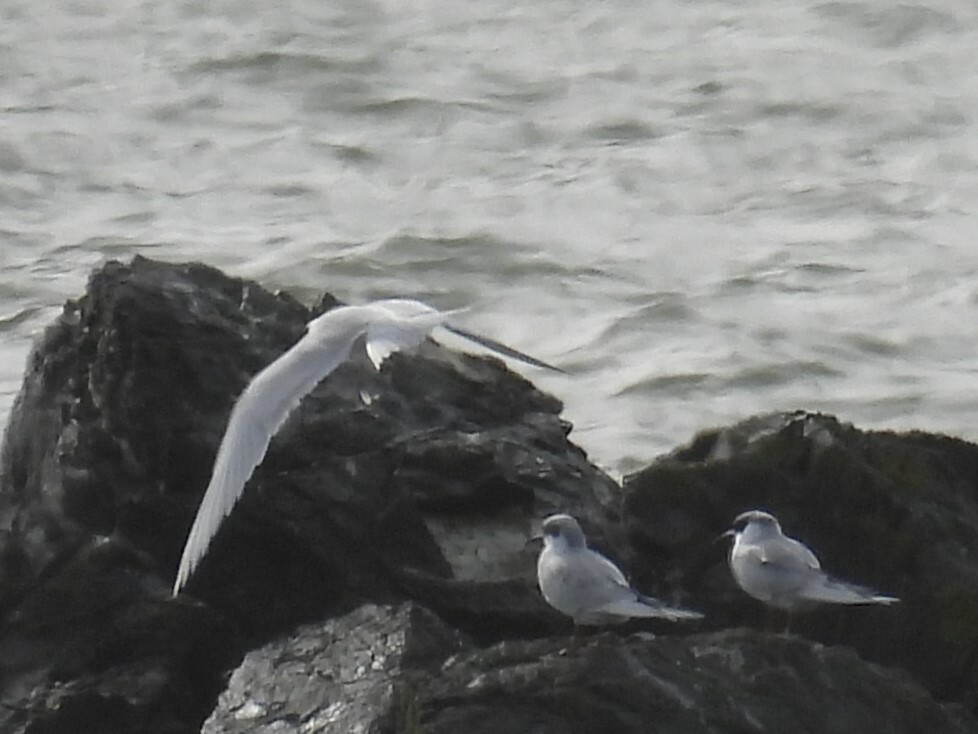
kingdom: Animalia
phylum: Chordata
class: Aves
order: Charadriiformes
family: Laridae
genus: Sterna
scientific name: Sterna forsteri
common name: Forster's tern
